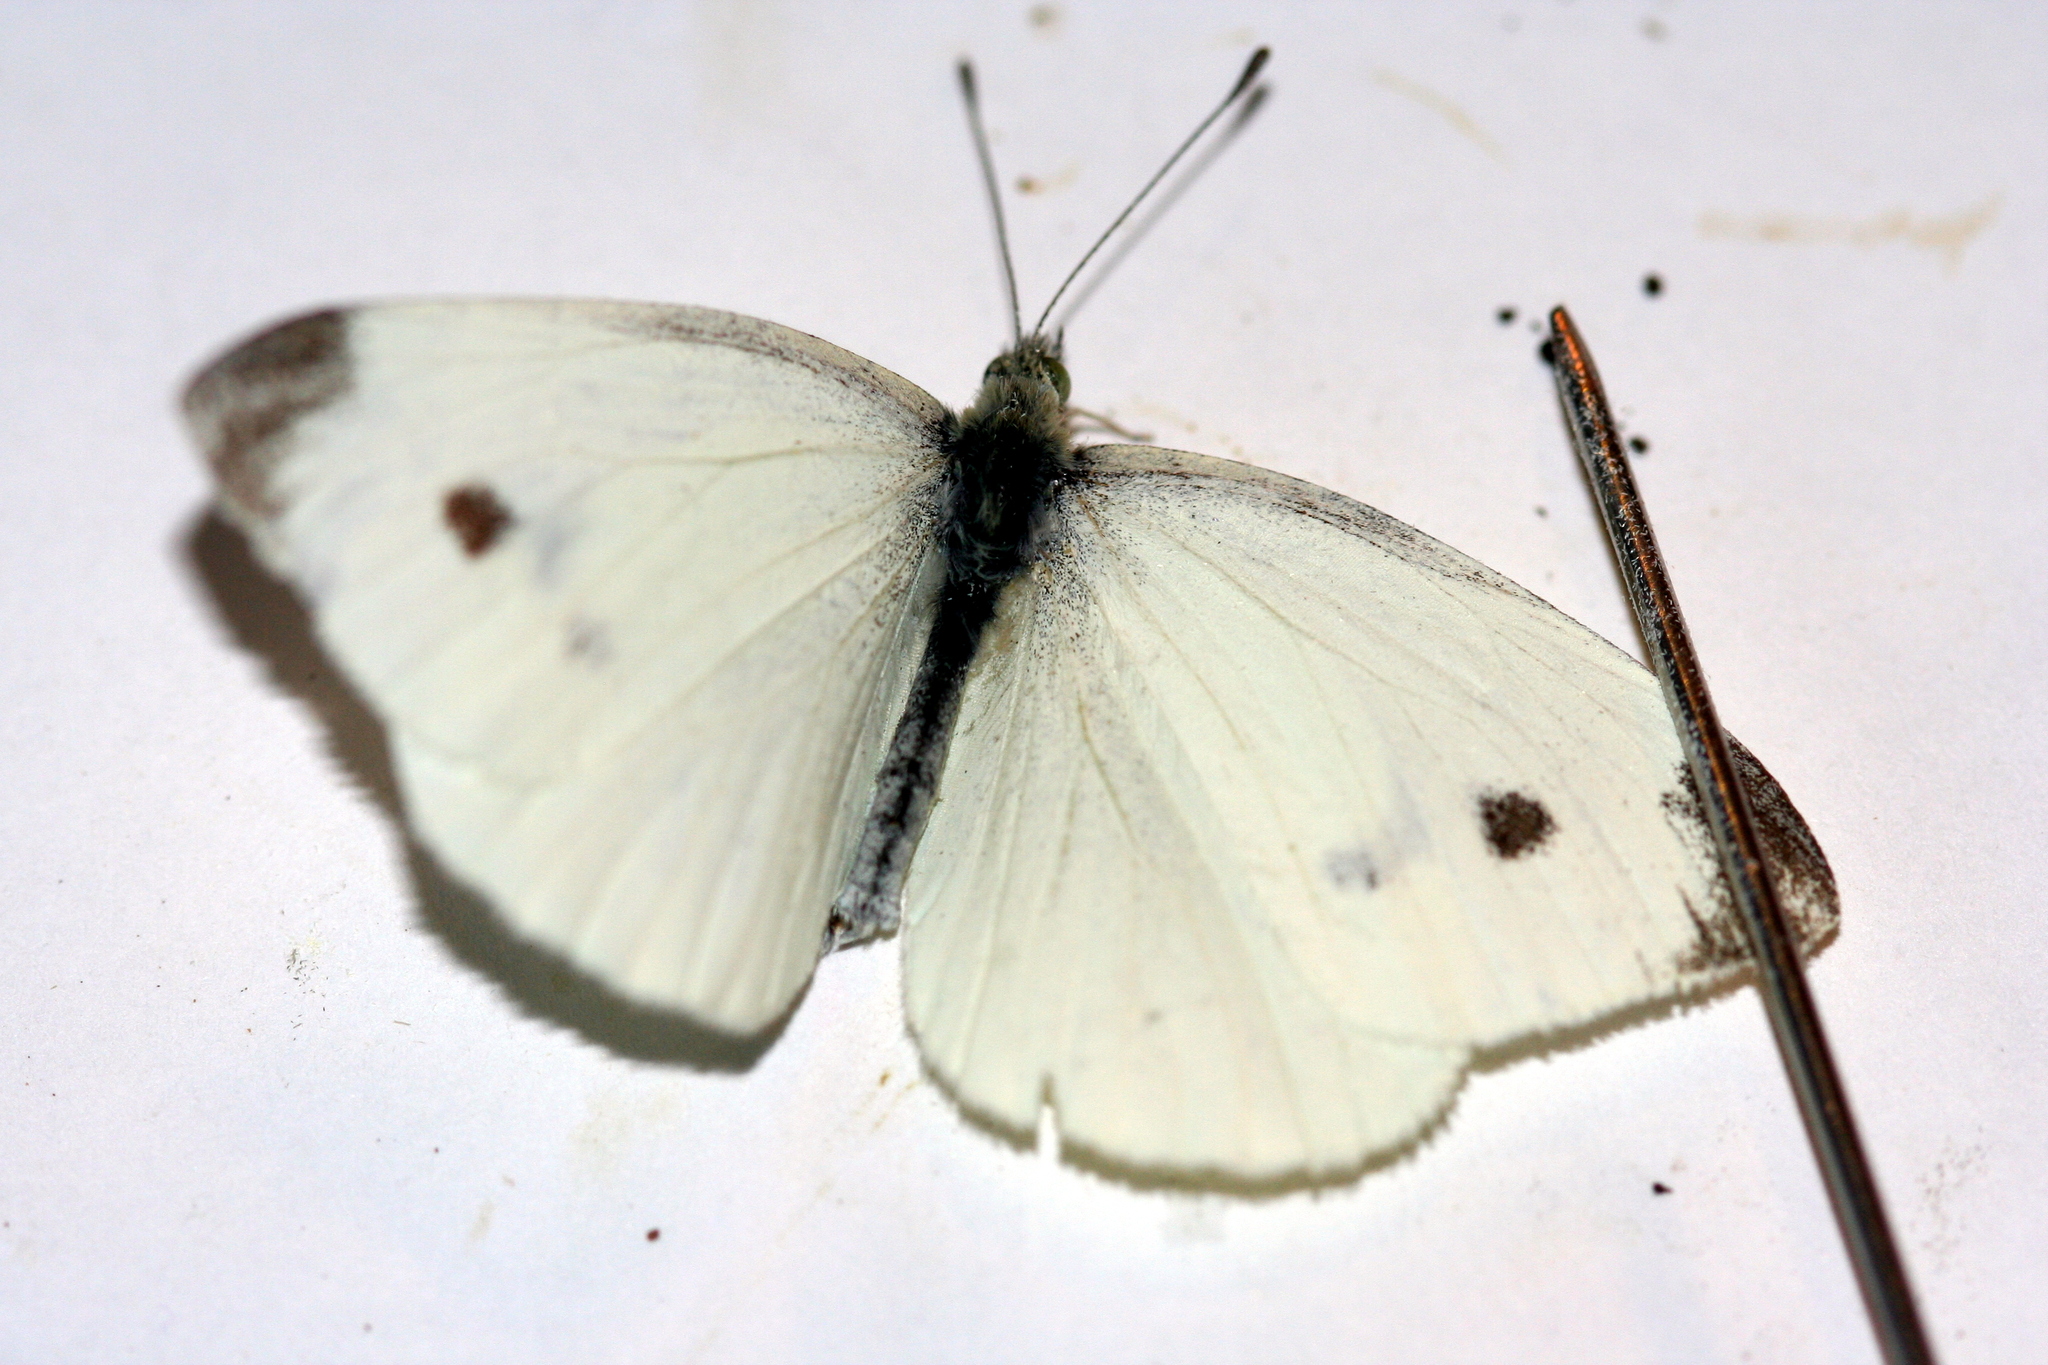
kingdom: Animalia
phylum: Arthropoda
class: Insecta
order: Lepidoptera
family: Pieridae
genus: Pieris
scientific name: Pieris rapae
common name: Small white
